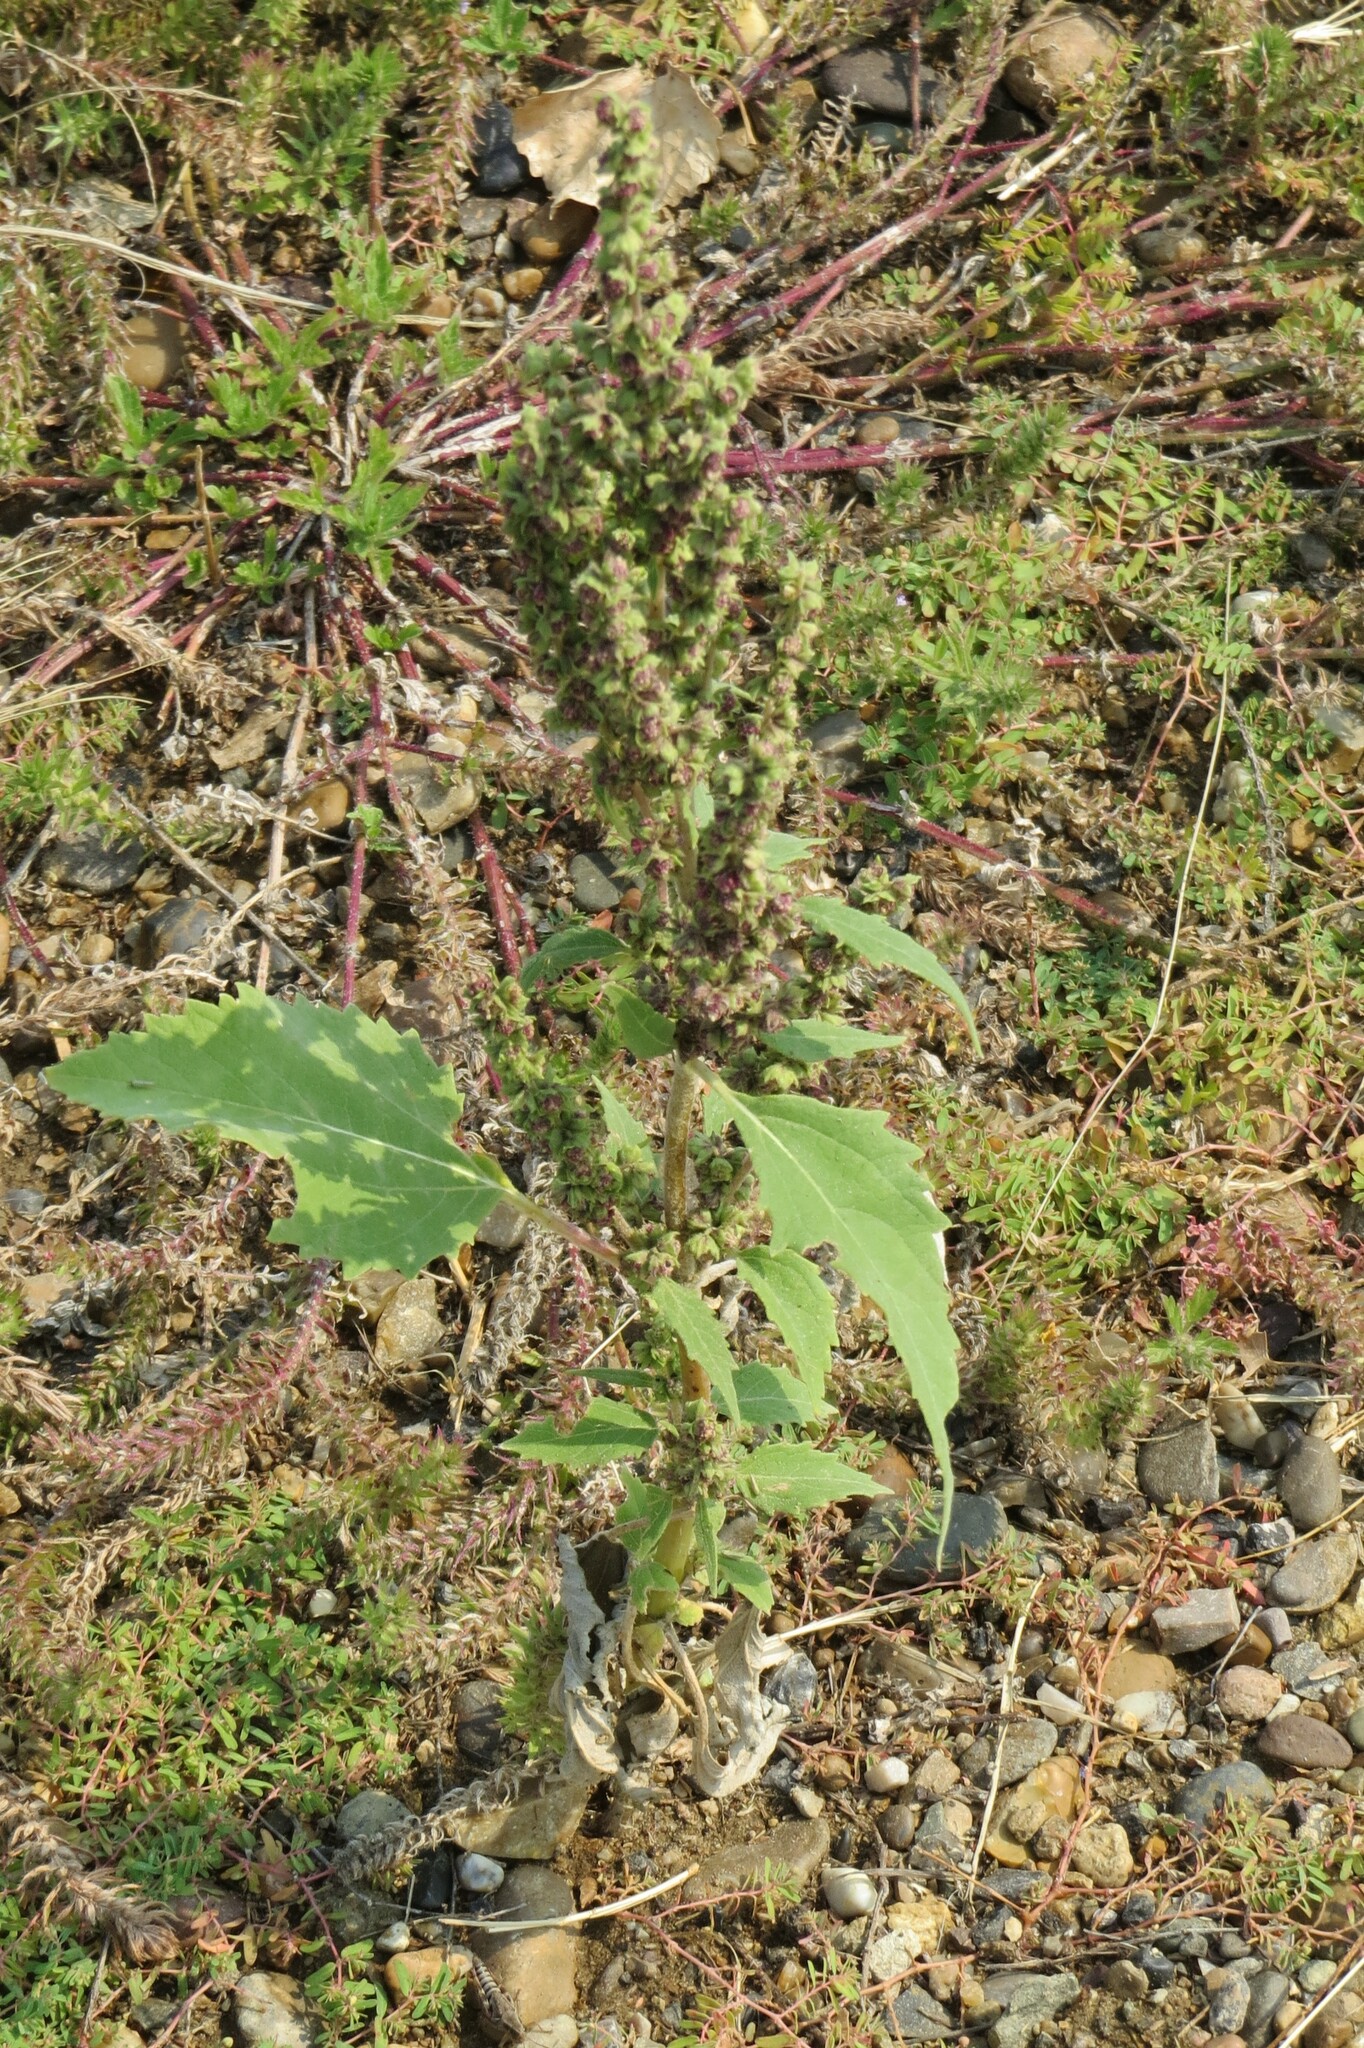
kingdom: Plantae
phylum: Tracheophyta
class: Magnoliopsida
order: Asterales
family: Asteraceae
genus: Cyclachaena
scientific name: Cyclachaena xanthiifolia
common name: Giant sumpweed
